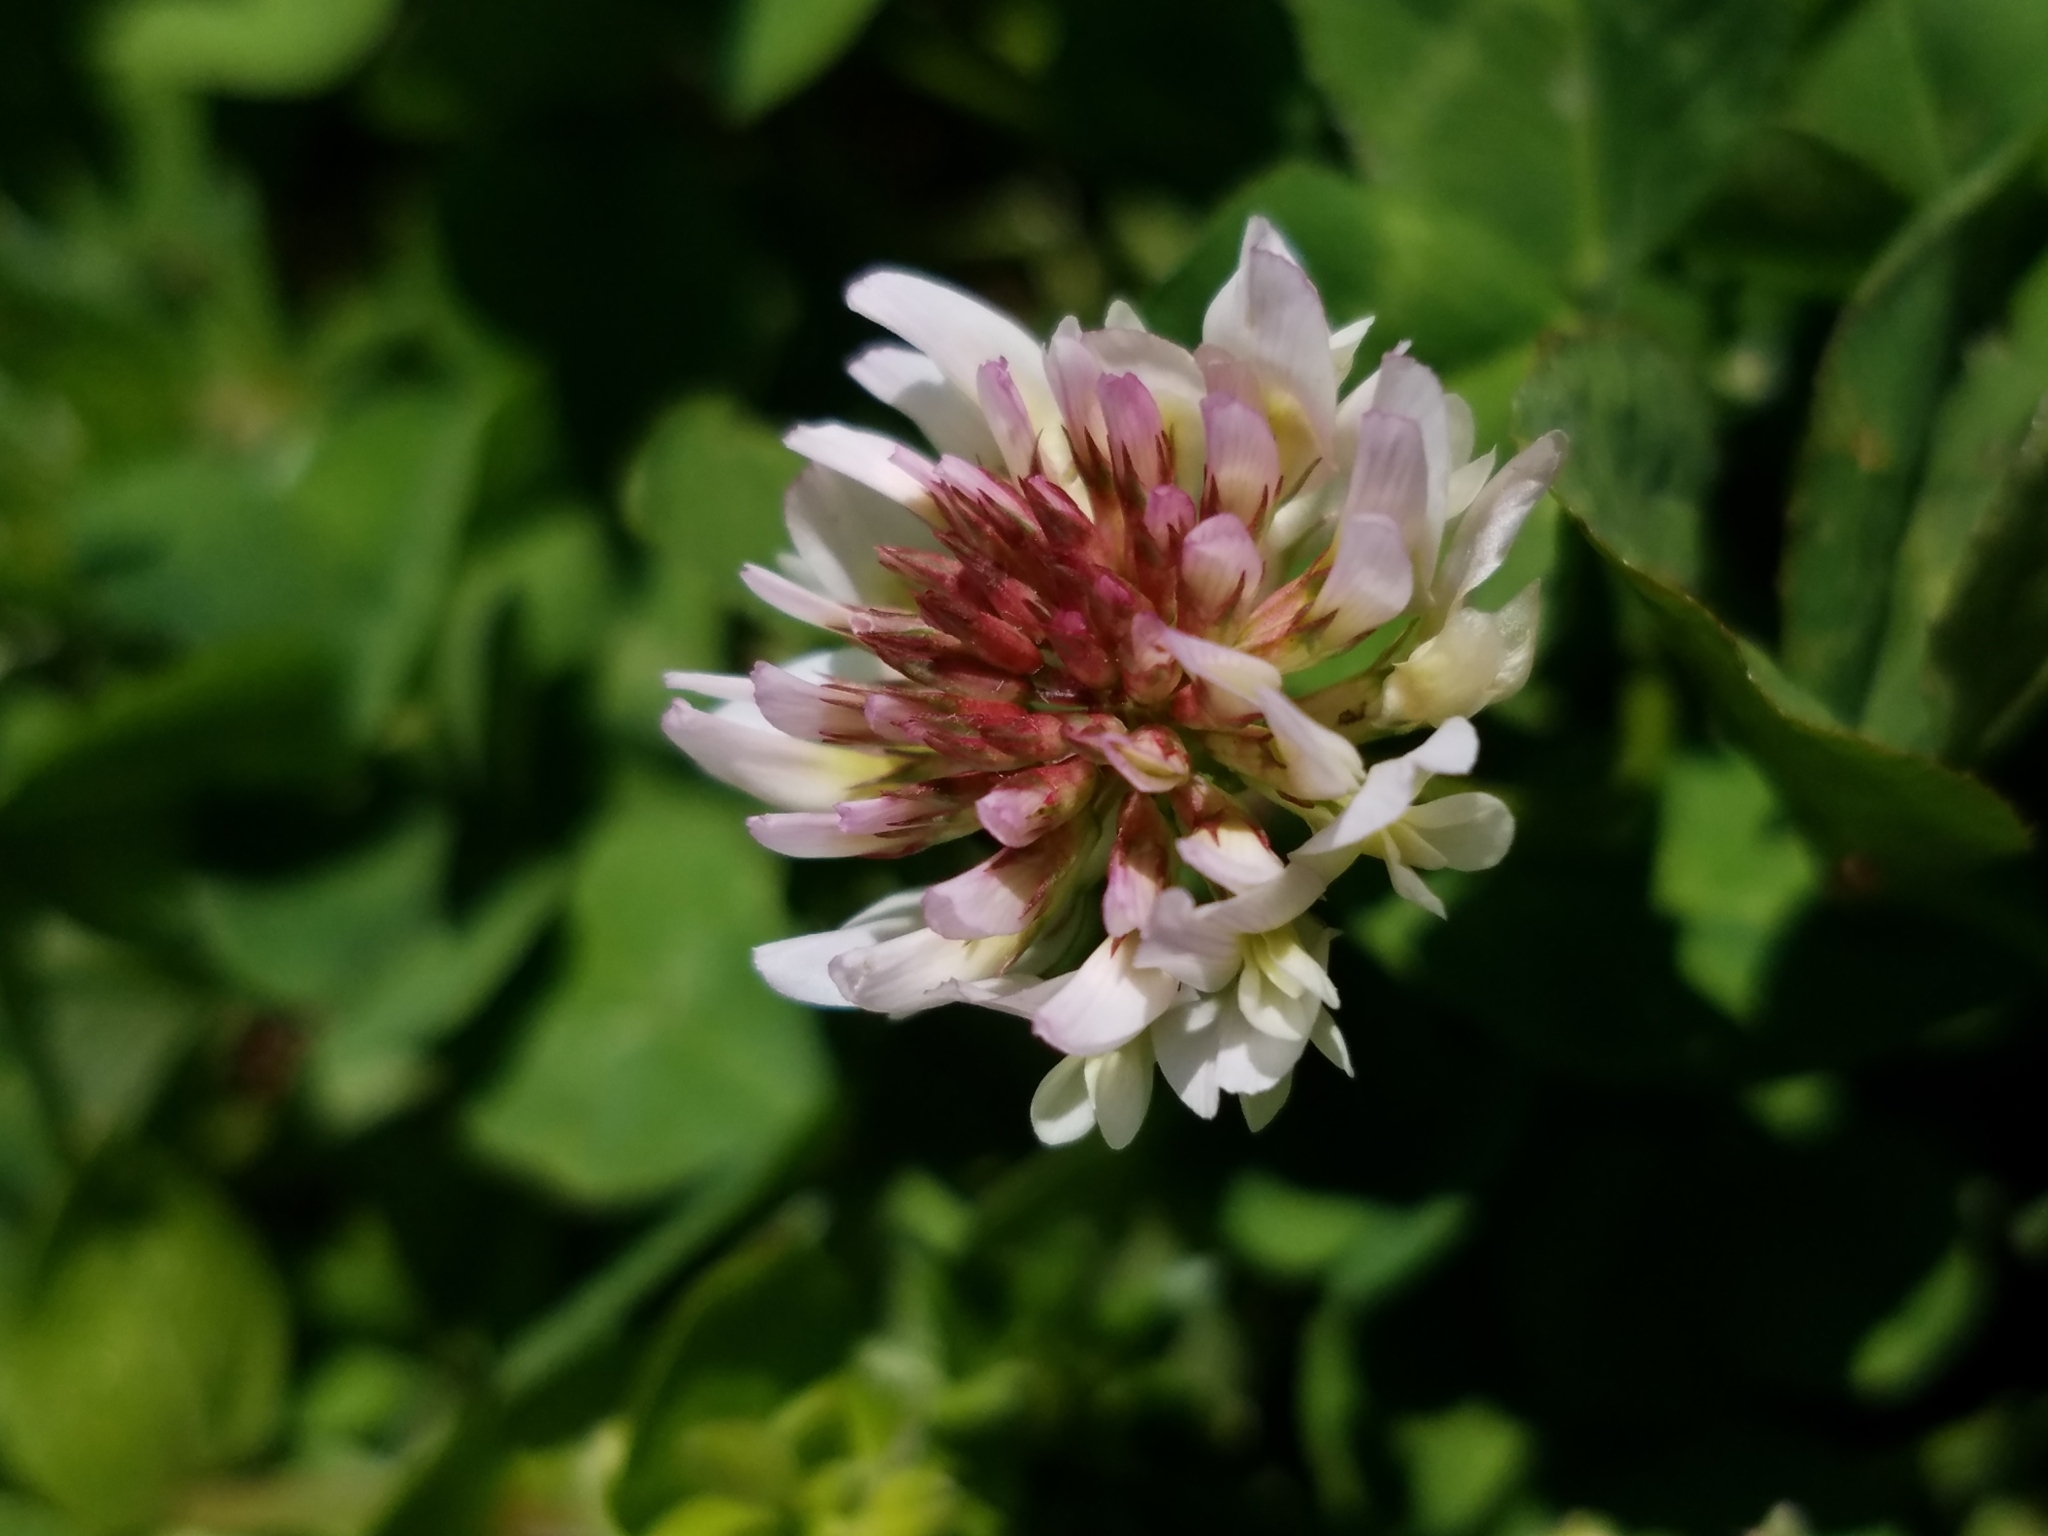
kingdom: Plantae
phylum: Tracheophyta
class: Magnoliopsida
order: Fabales
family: Fabaceae
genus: Trifolium
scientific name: Trifolium repens
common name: White clover
